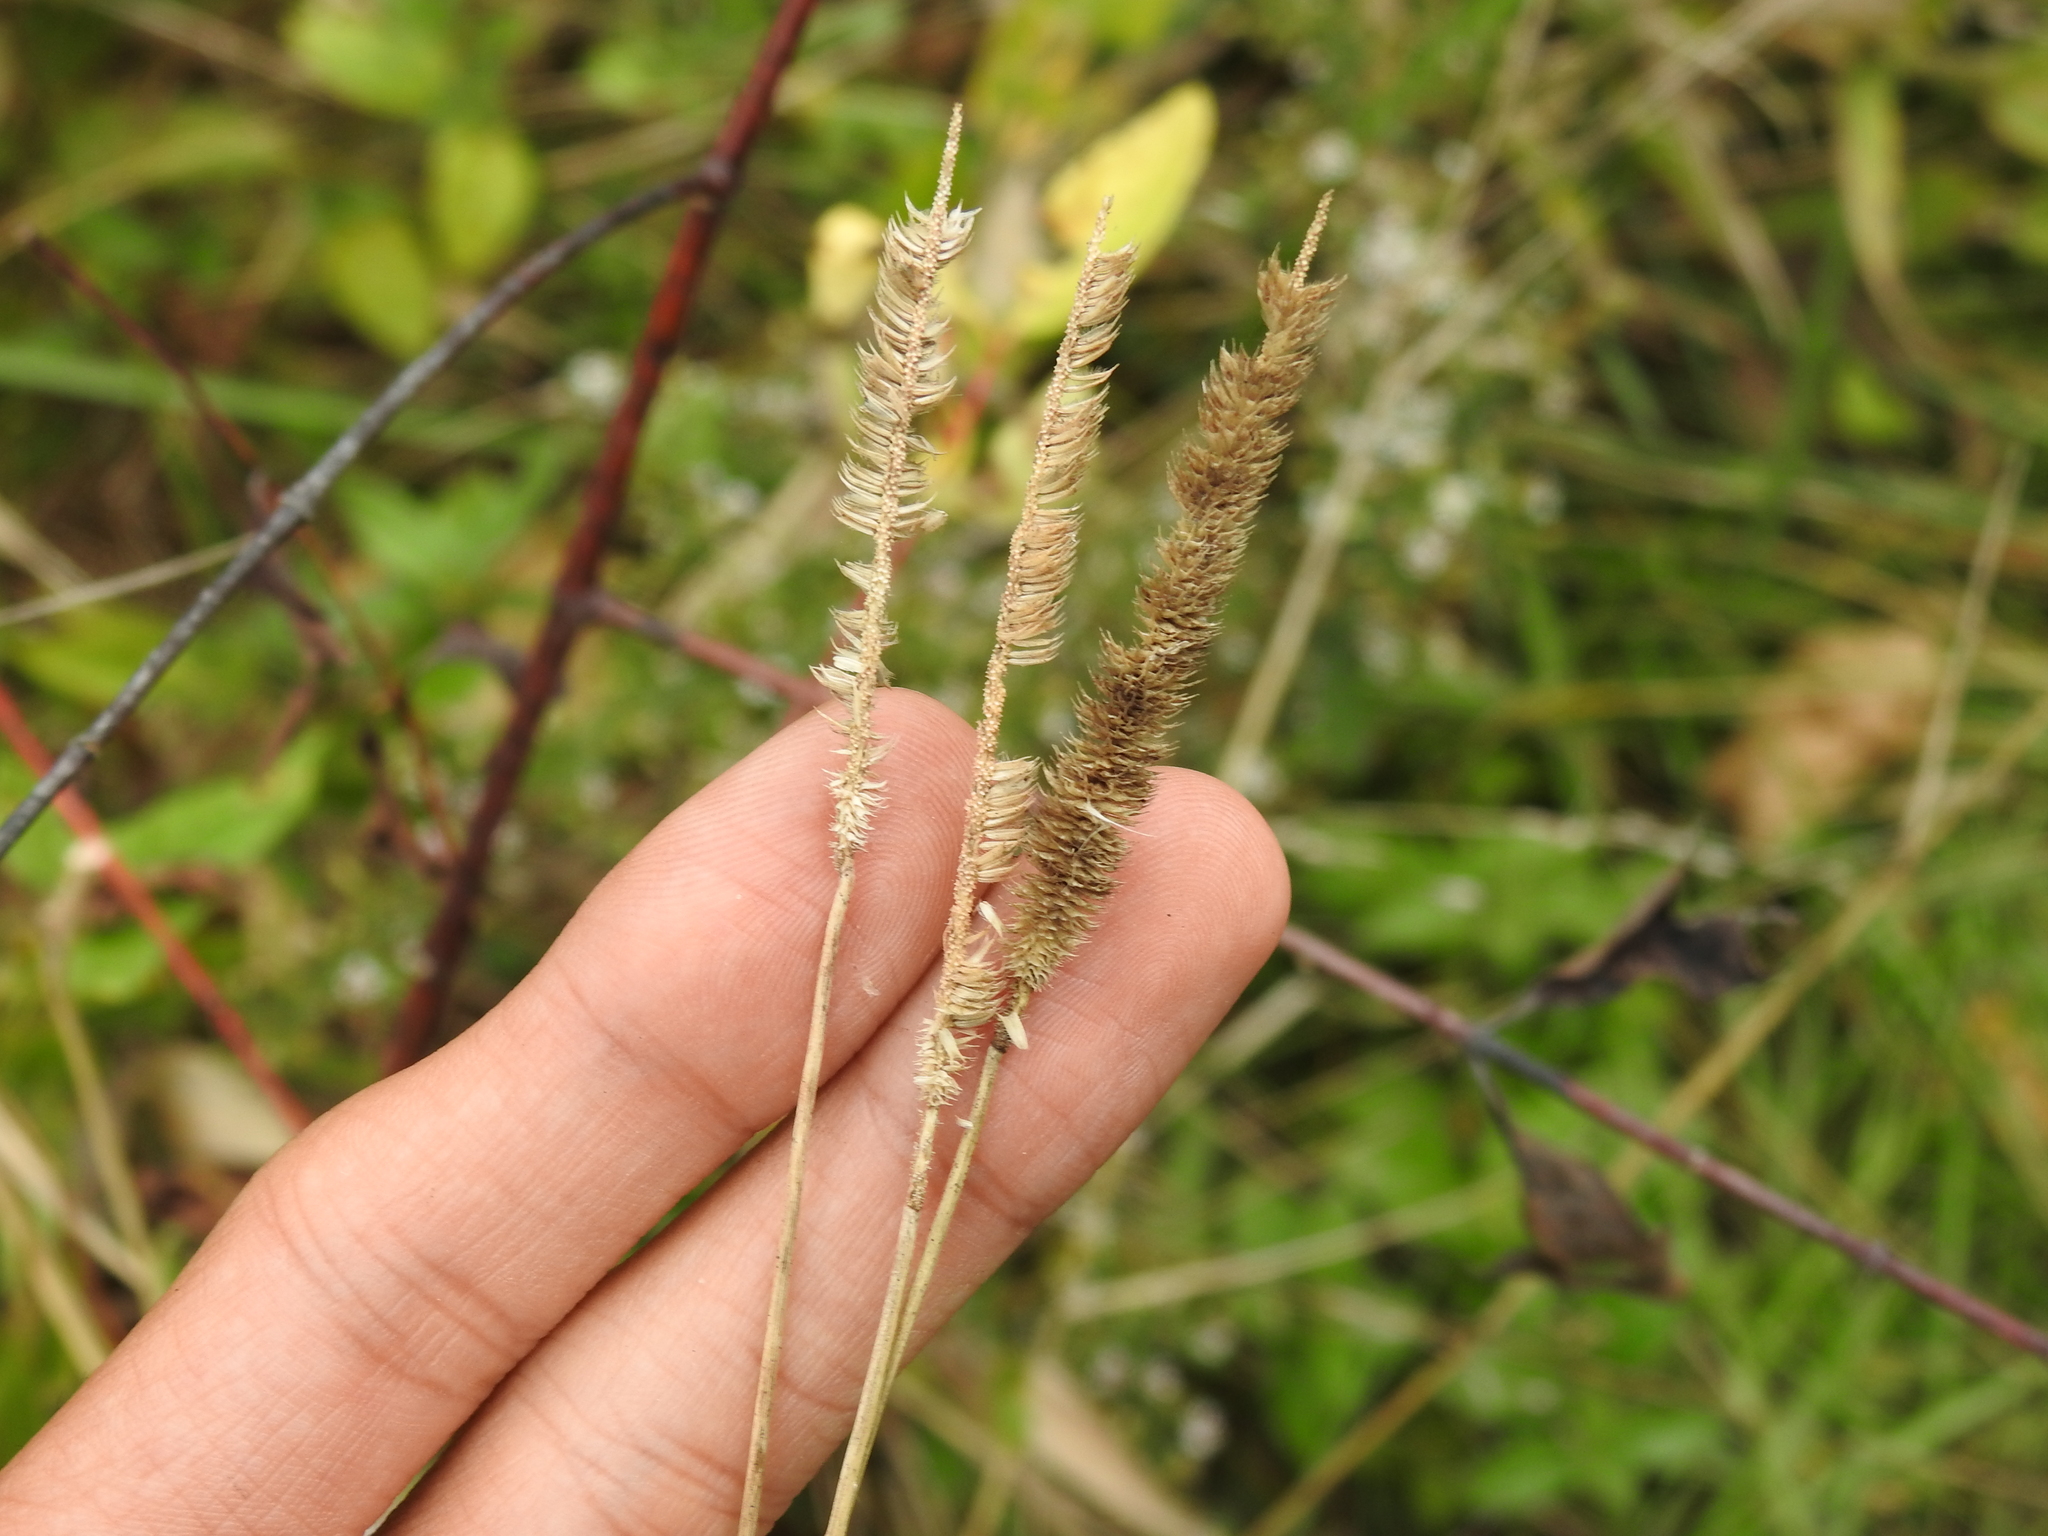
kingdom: Plantae
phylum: Tracheophyta
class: Liliopsida
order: Poales
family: Poaceae
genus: Phleum
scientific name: Phleum pratense
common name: Timothy grass
